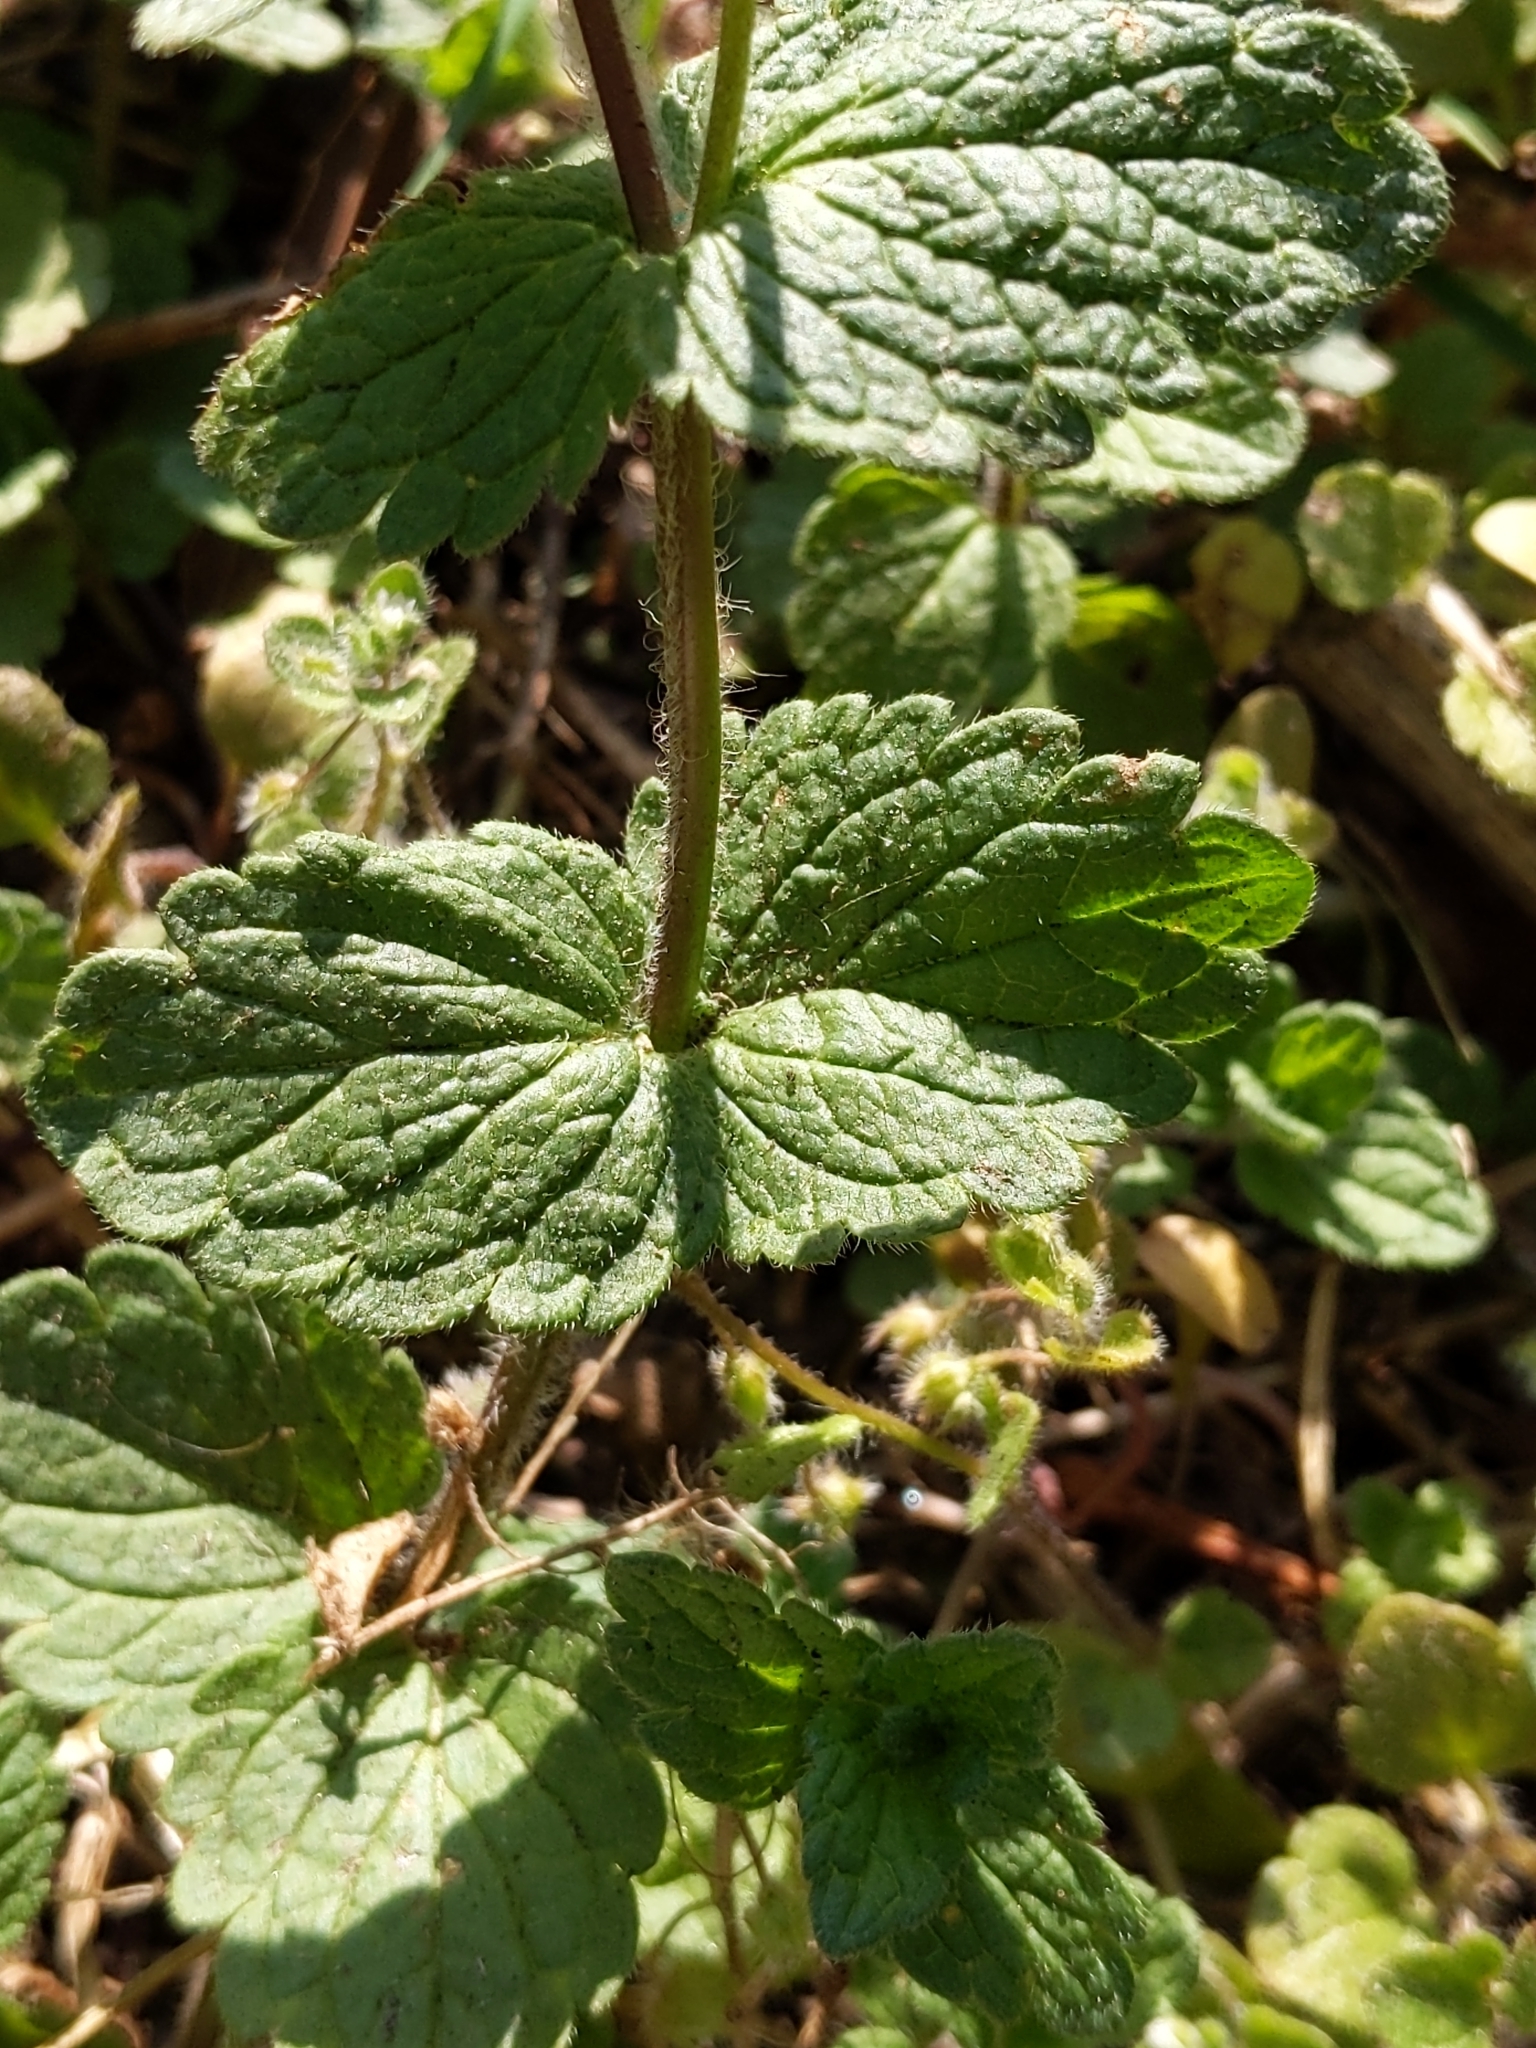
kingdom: Plantae
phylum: Tracheophyta
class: Magnoliopsida
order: Lamiales
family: Plantaginaceae
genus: Veronica
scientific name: Veronica chamaedrys
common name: Germander speedwell
